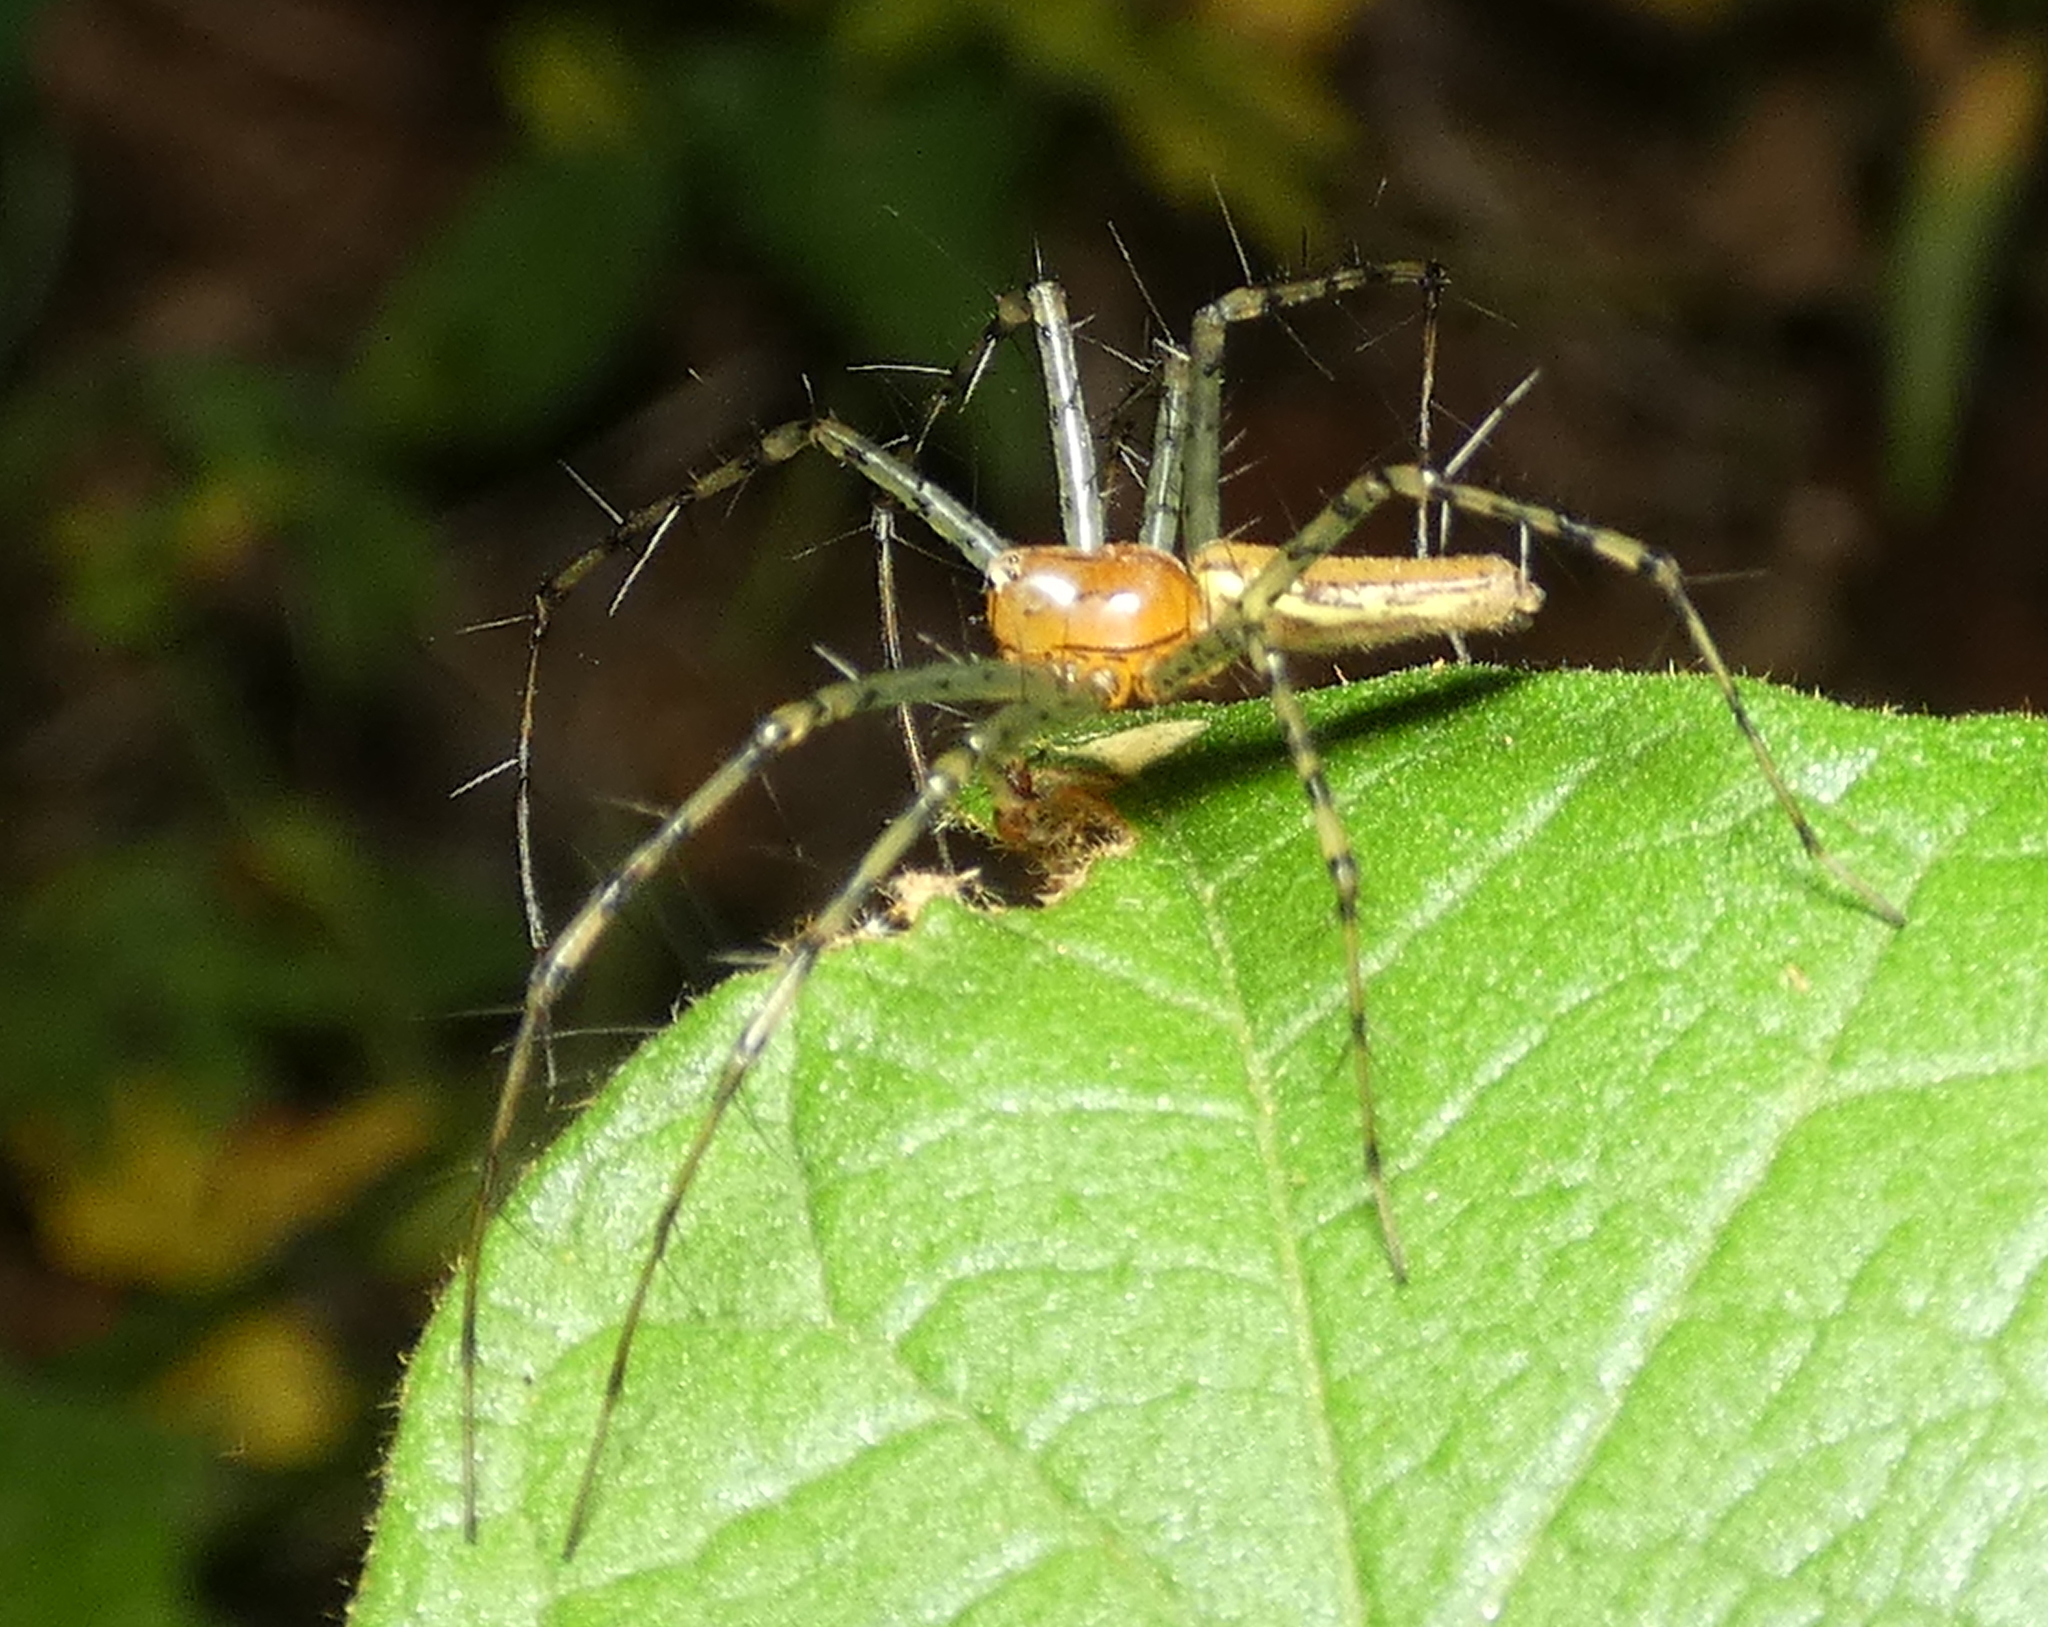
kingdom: Animalia
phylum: Arthropoda
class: Arachnida
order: Araneae
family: Oxyopidae
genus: Peucetia
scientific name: Peucetia rubrolineata
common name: Lynx spiders
